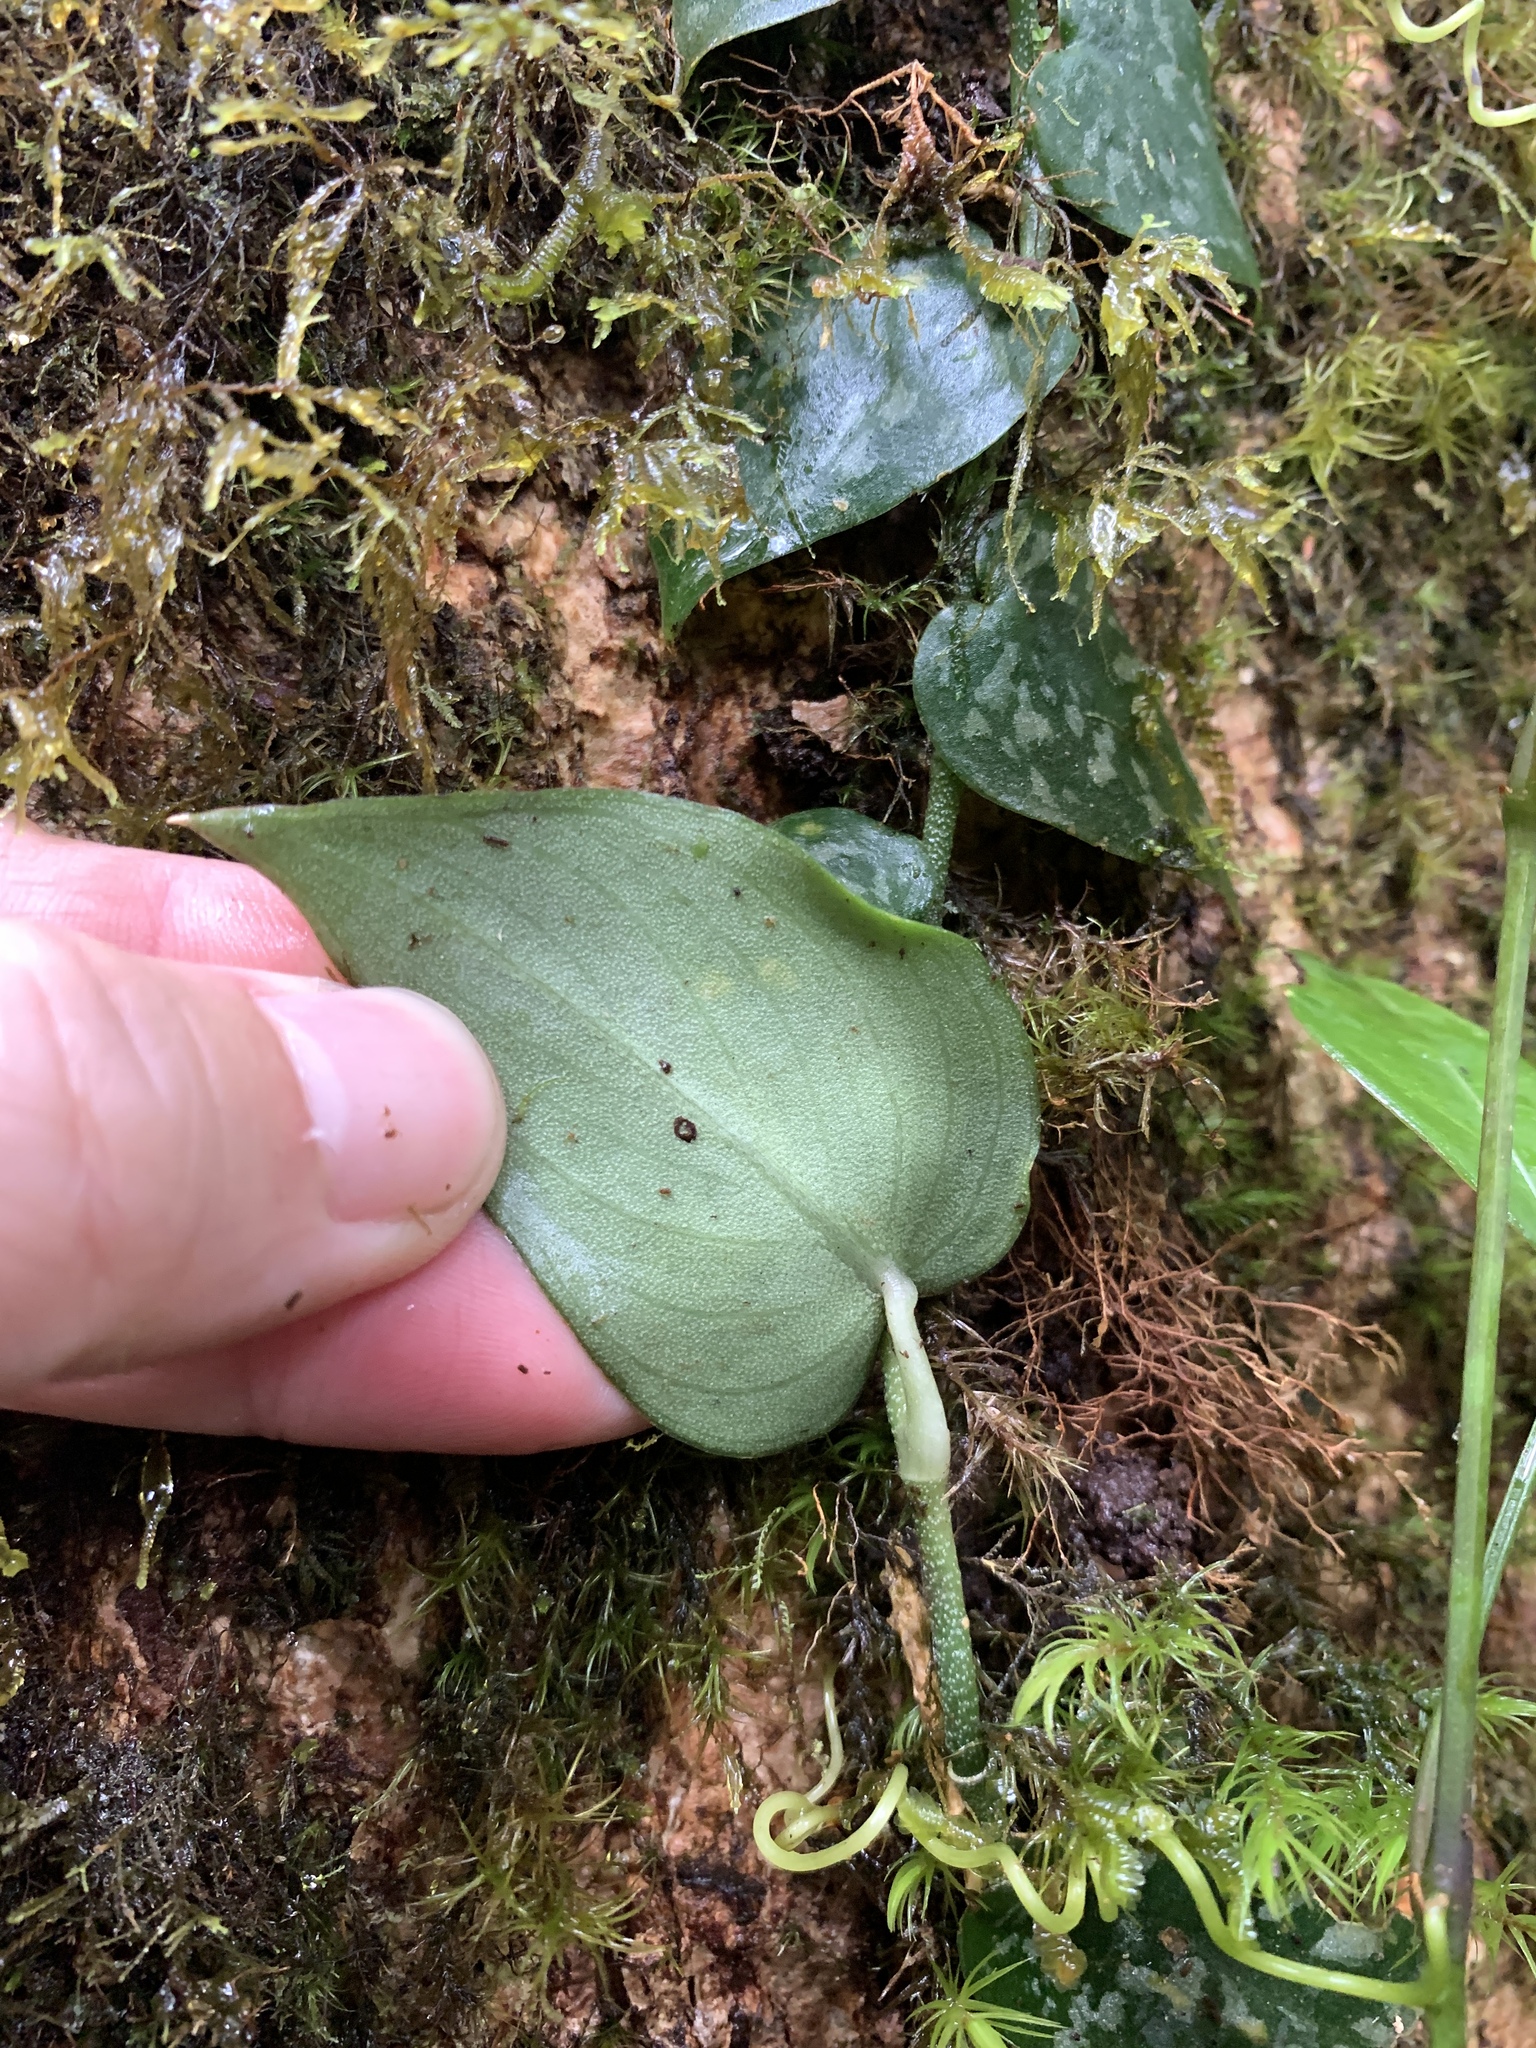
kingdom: Plantae
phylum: Tracheophyta
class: Liliopsida
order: Alismatales
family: Araceae
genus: Scindapsus
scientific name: Scindapsus pictus
